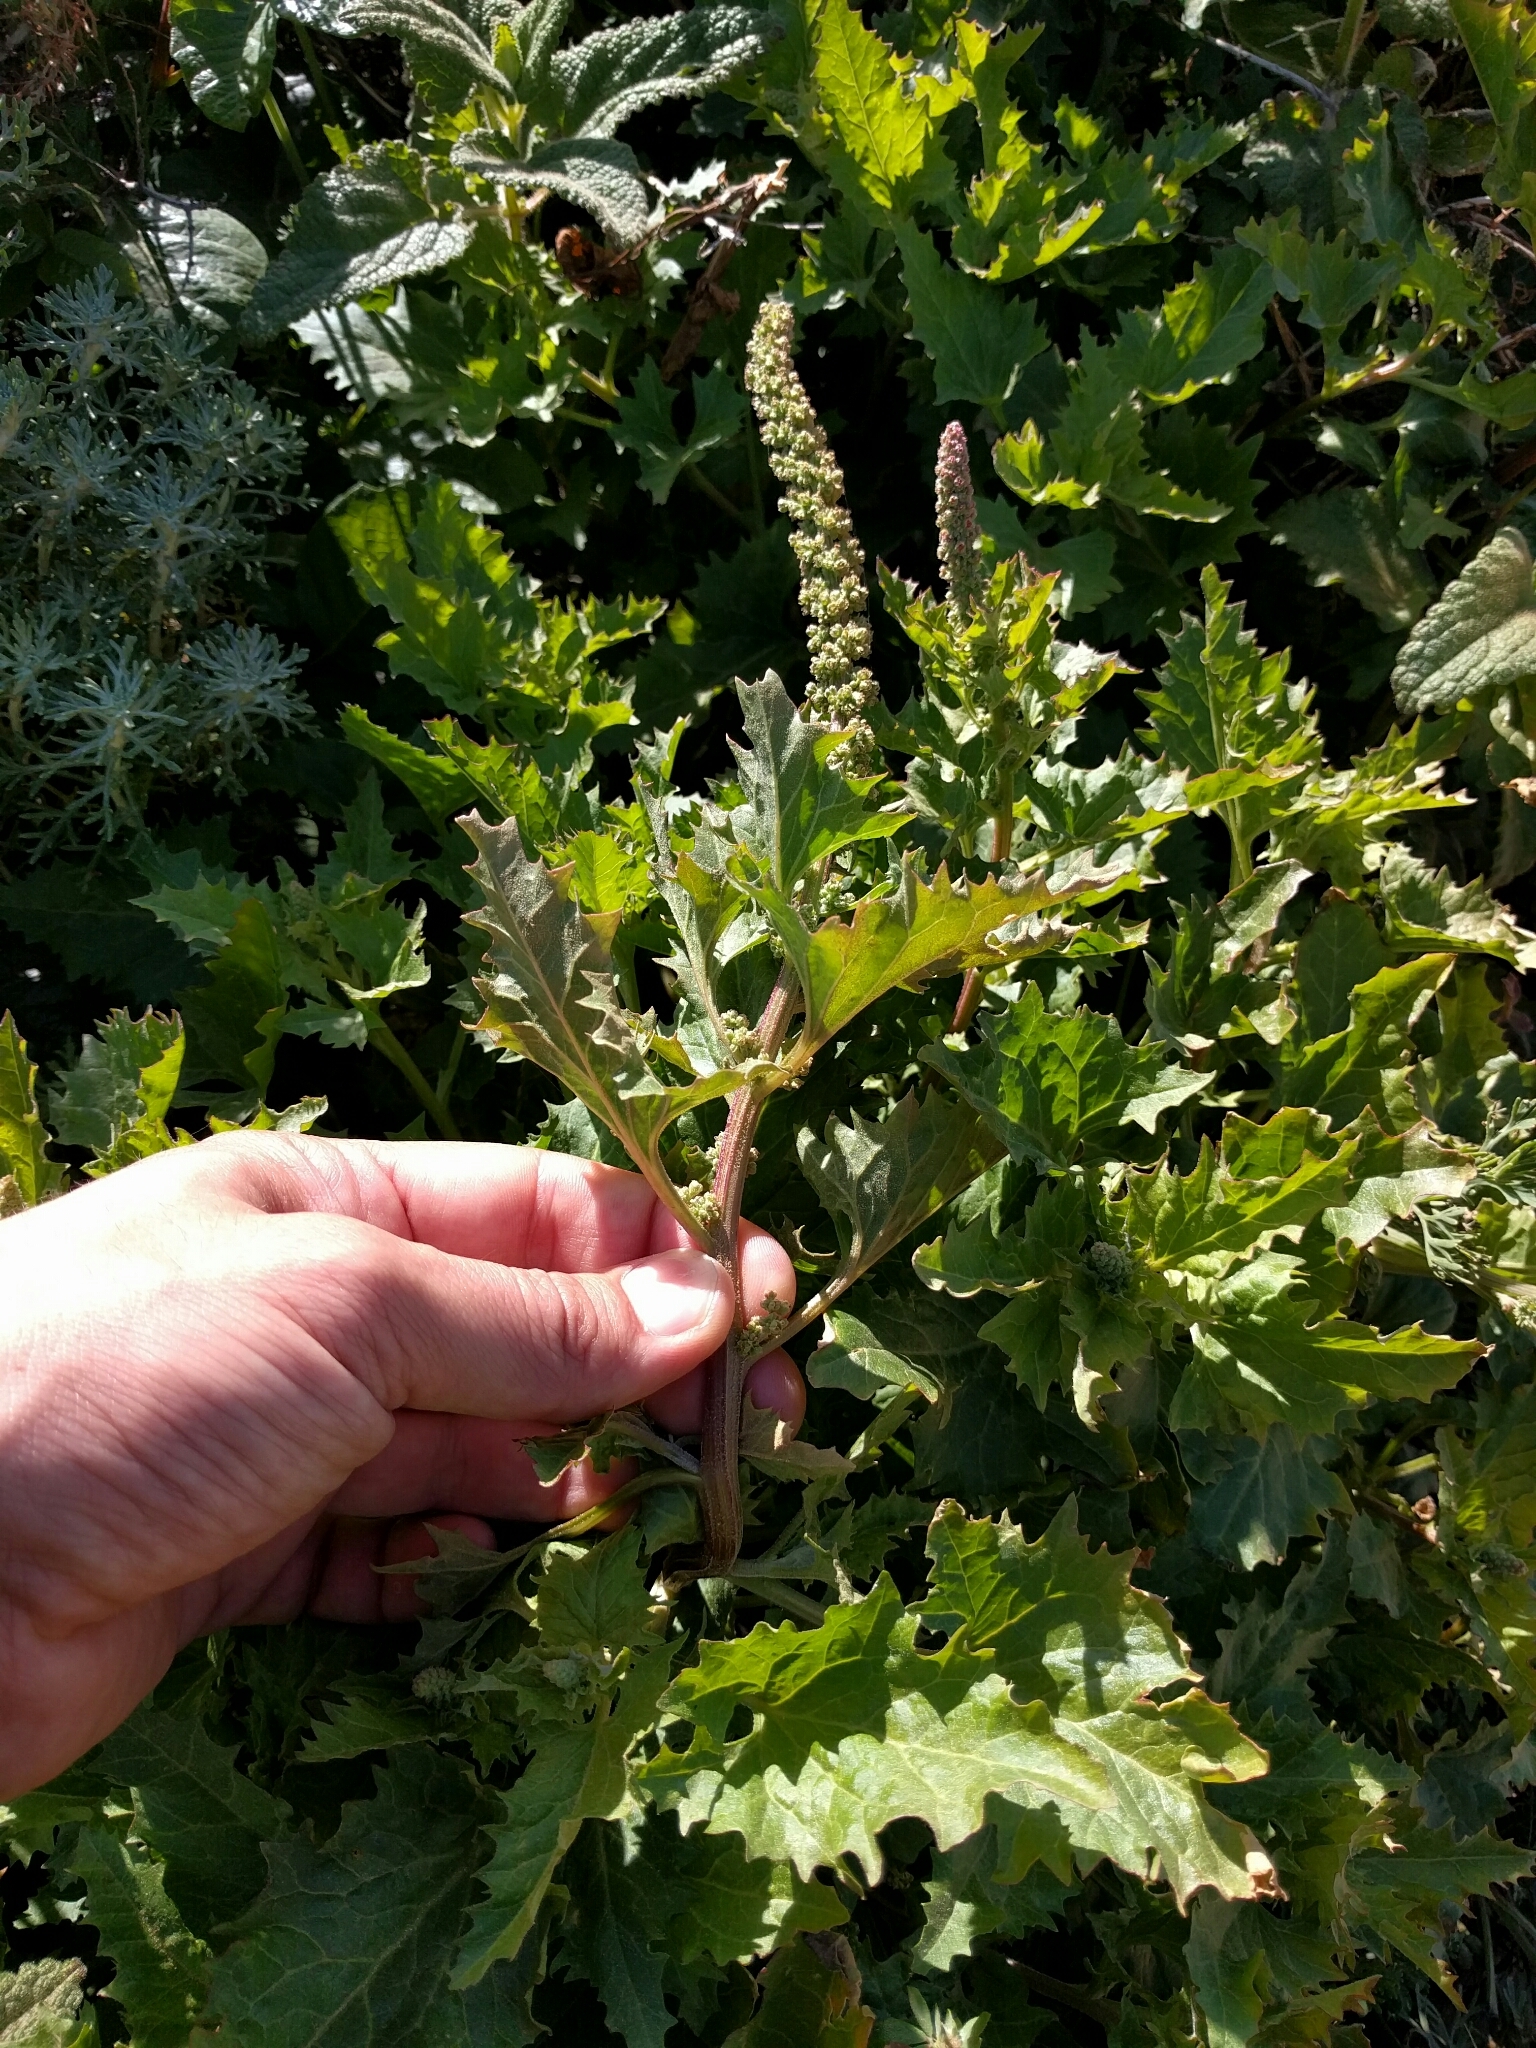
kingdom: Plantae
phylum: Tracheophyta
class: Magnoliopsida
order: Caryophyllales
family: Amaranthaceae
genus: Blitum
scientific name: Blitum californicum
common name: California goosefoot
